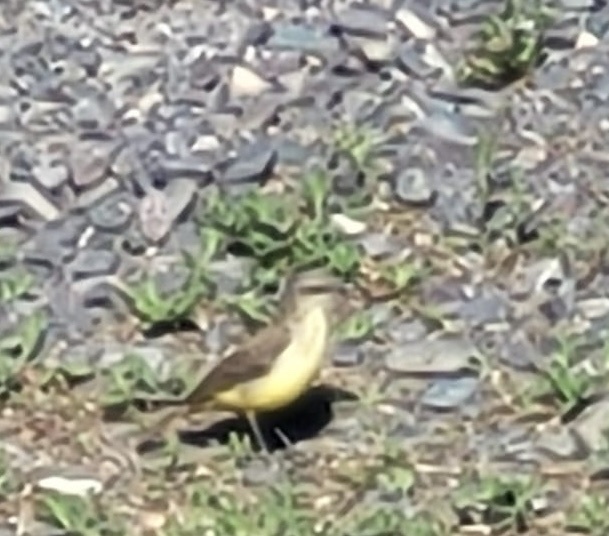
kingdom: Animalia
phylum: Chordata
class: Aves
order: Passeriformes
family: Tyrannidae
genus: Machetornis
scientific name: Machetornis rixosa
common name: Cattle tyrant
